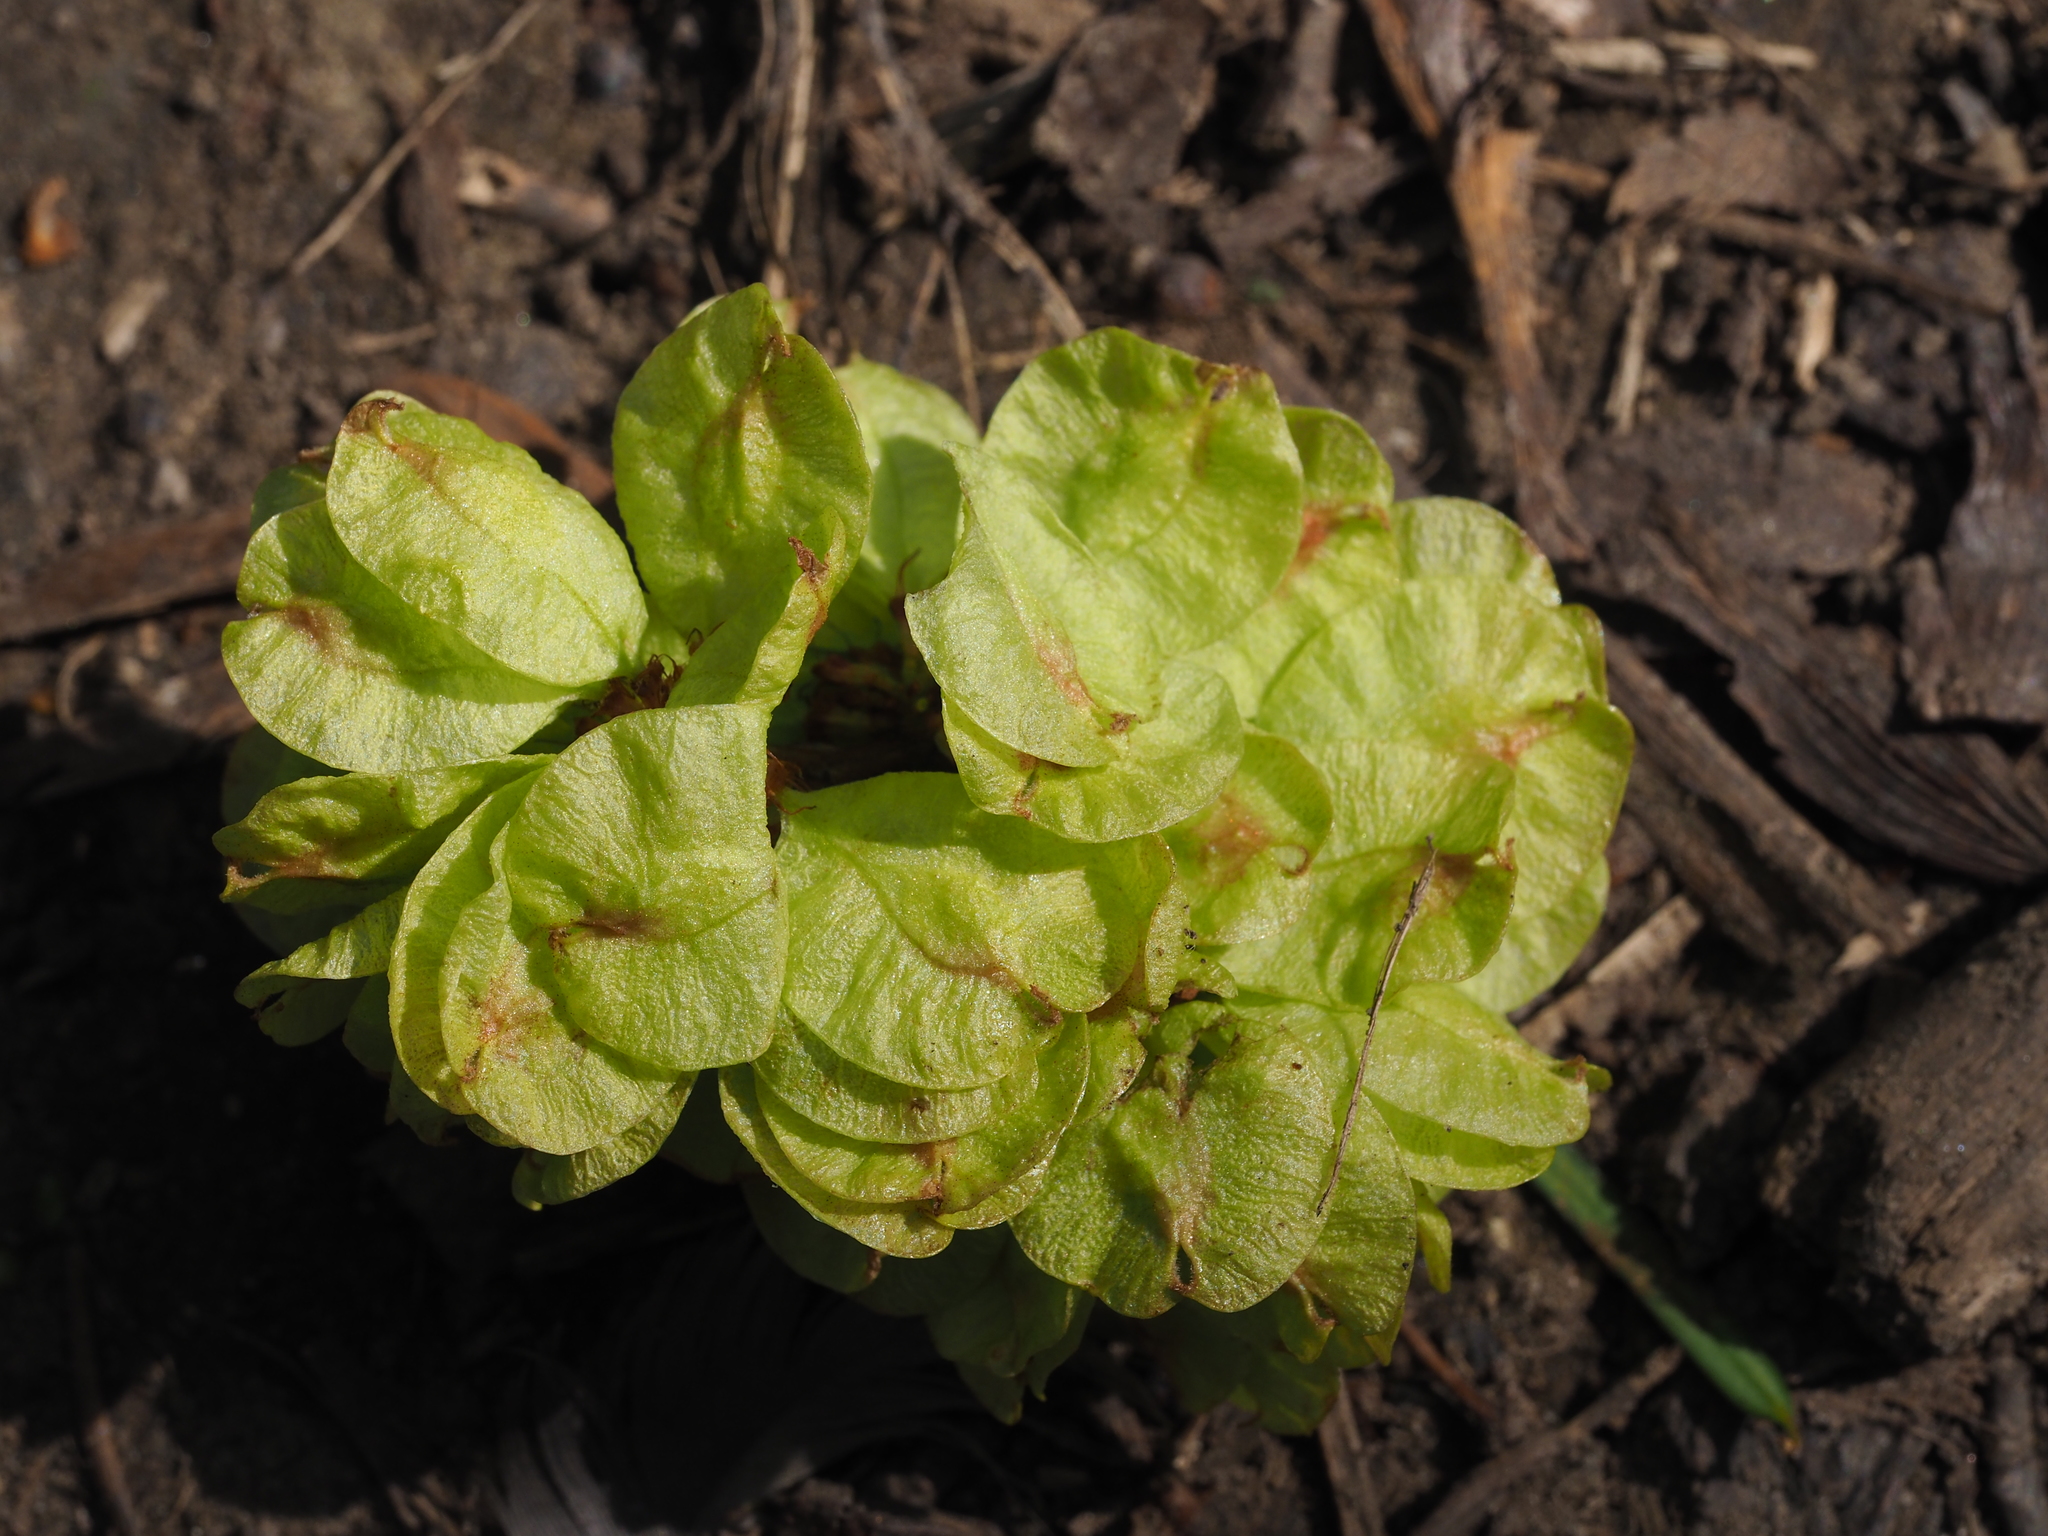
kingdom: Plantae
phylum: Tracheophyta
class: Magnoliopsida
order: Rosales
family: Ulmaceae
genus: Ulmus
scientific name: Ulmus minor
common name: Small-leaved elm
